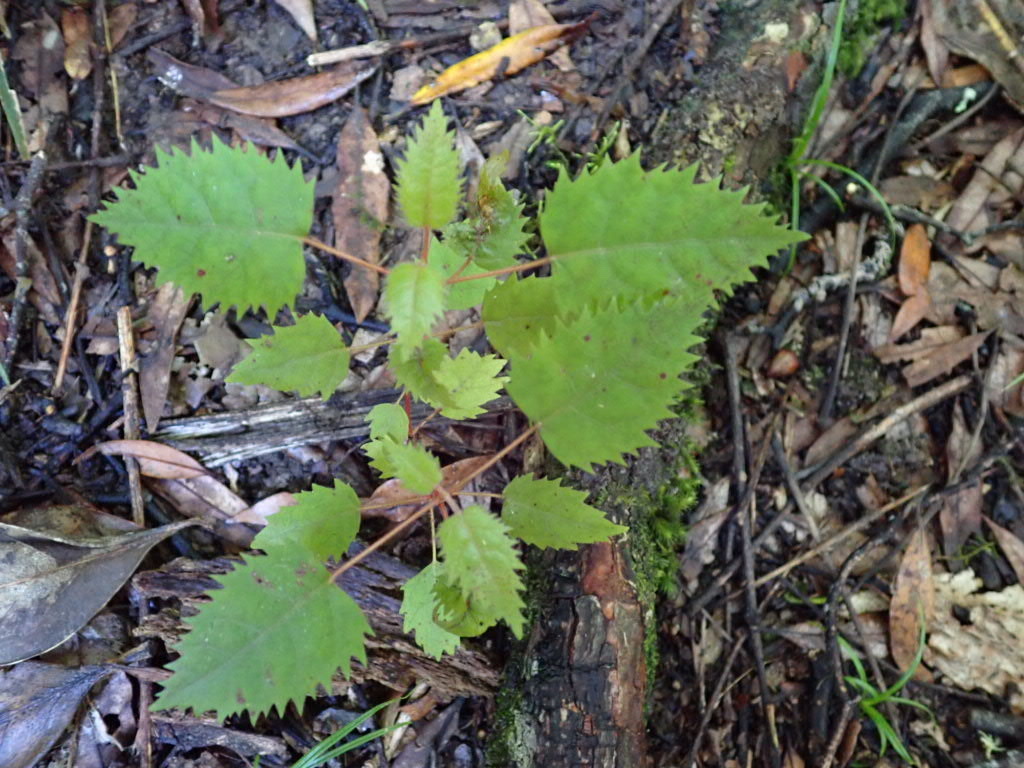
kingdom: Plantae
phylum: Tracheophyta
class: Magnoliopsida
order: Oxalidales
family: Elaeocarpaceae
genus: Aristotelia
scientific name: Aristotelia serrata
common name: New zealand wineberry
